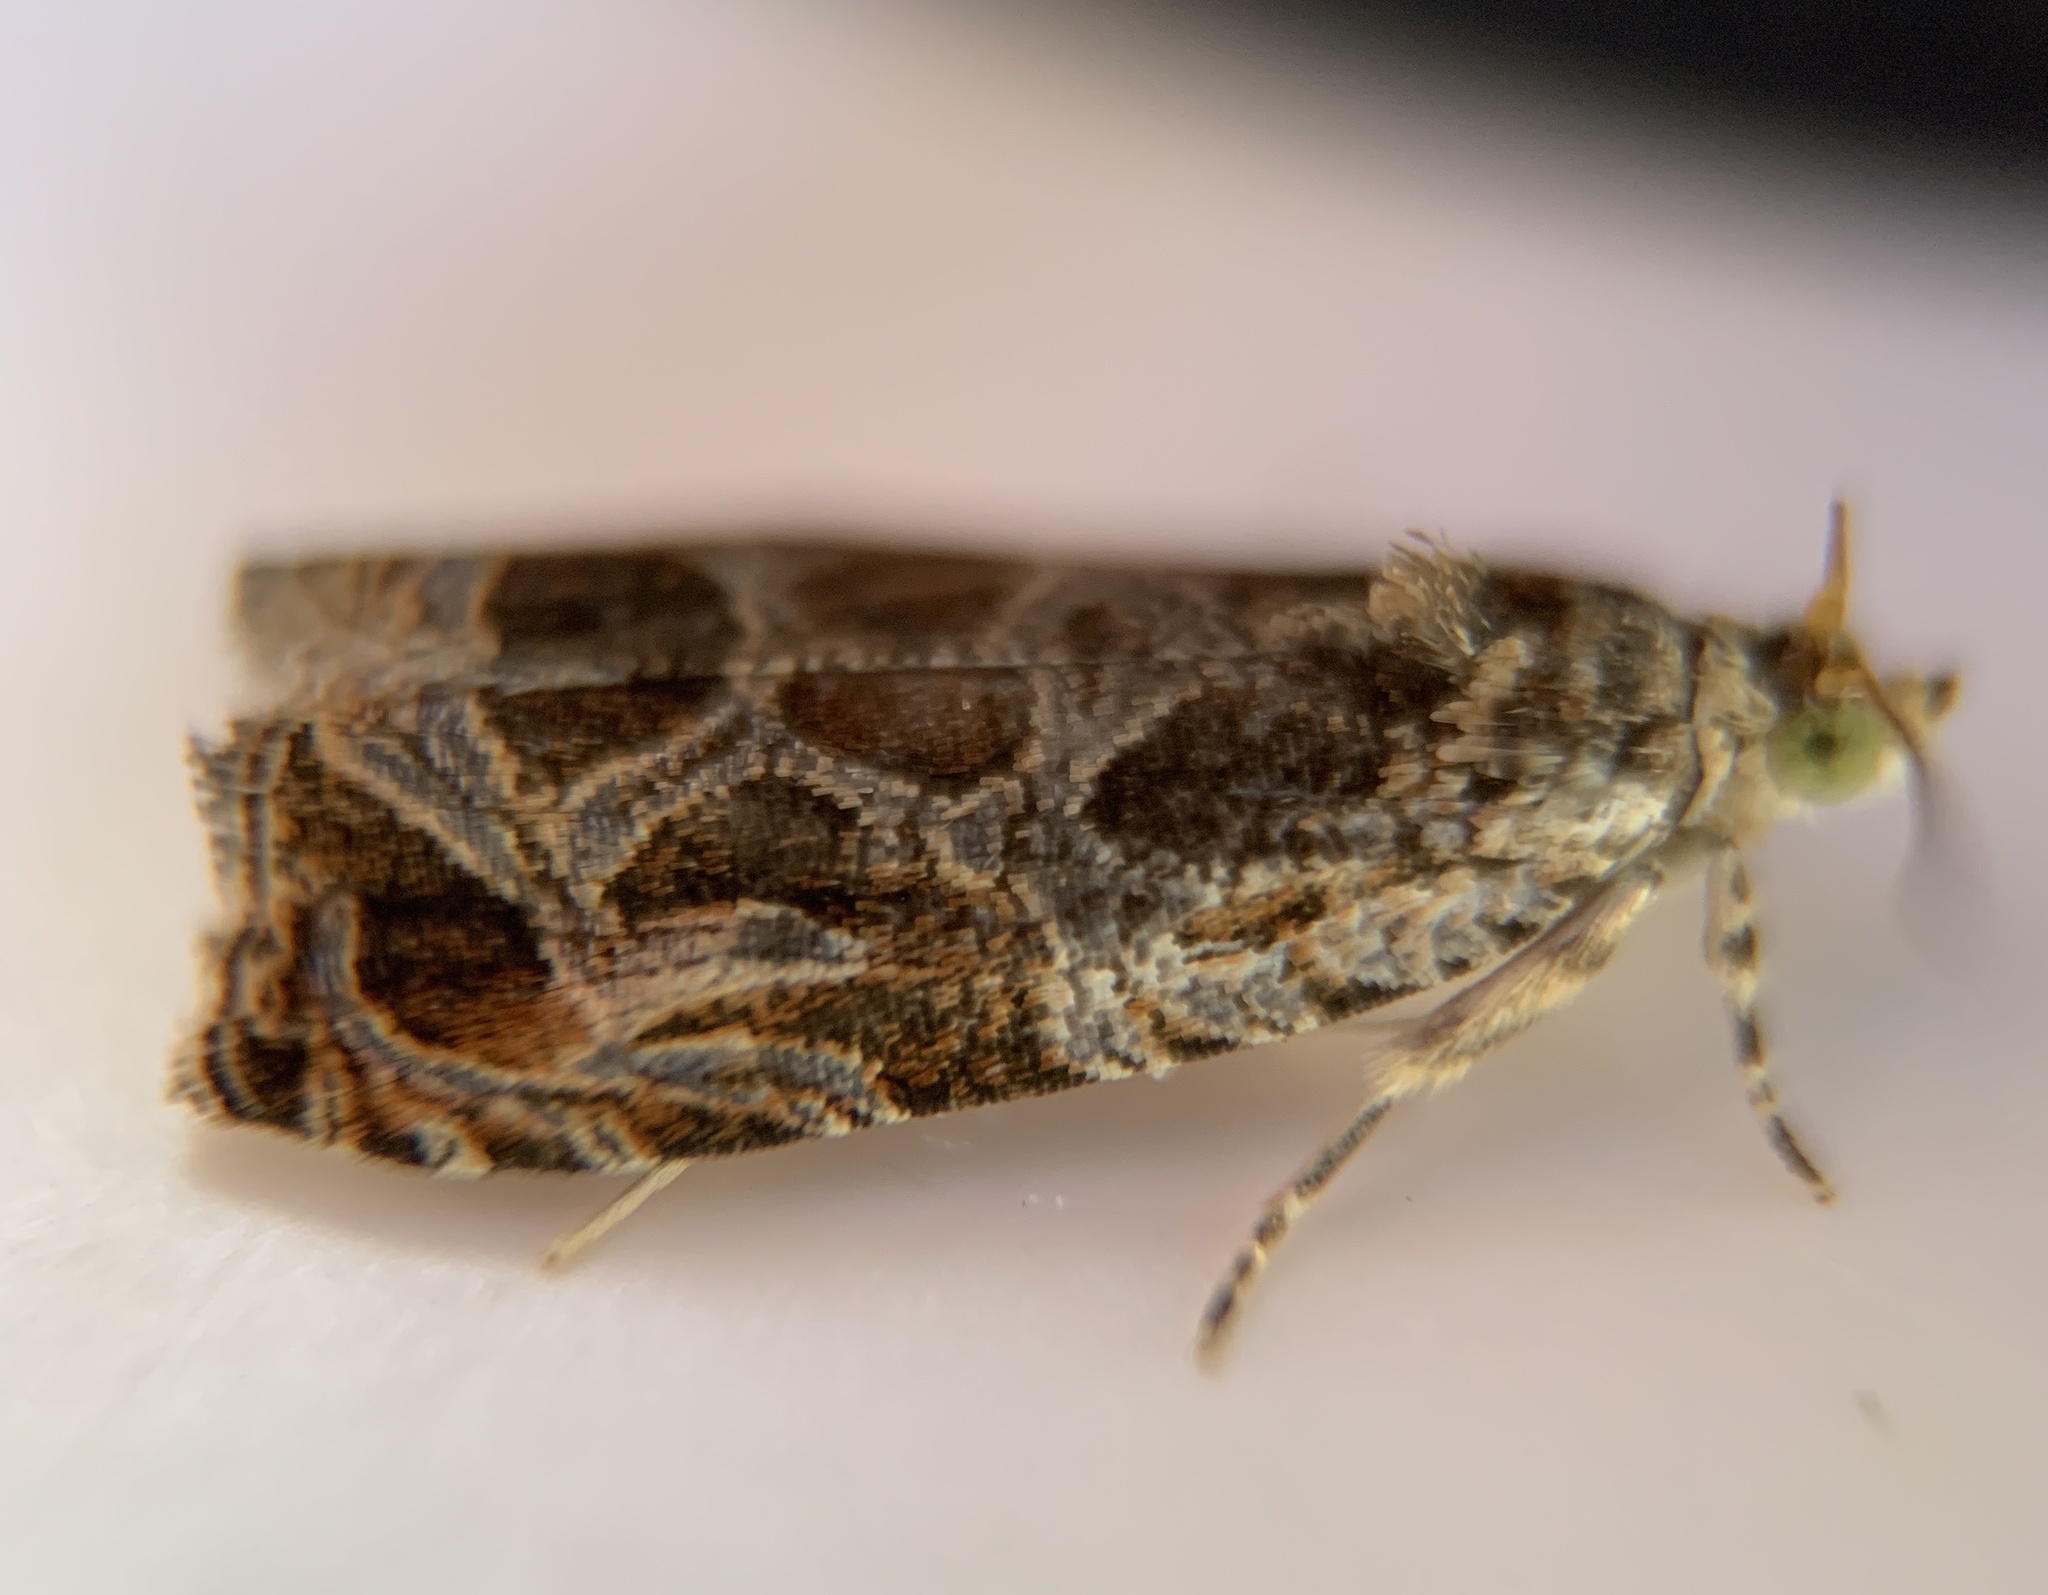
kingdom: Animalia
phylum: Arthropoda
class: Insecta
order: Lepidoptera
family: Tortricidae
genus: Olethreutes
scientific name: Olethreutes lacunana
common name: Lacuna moth
